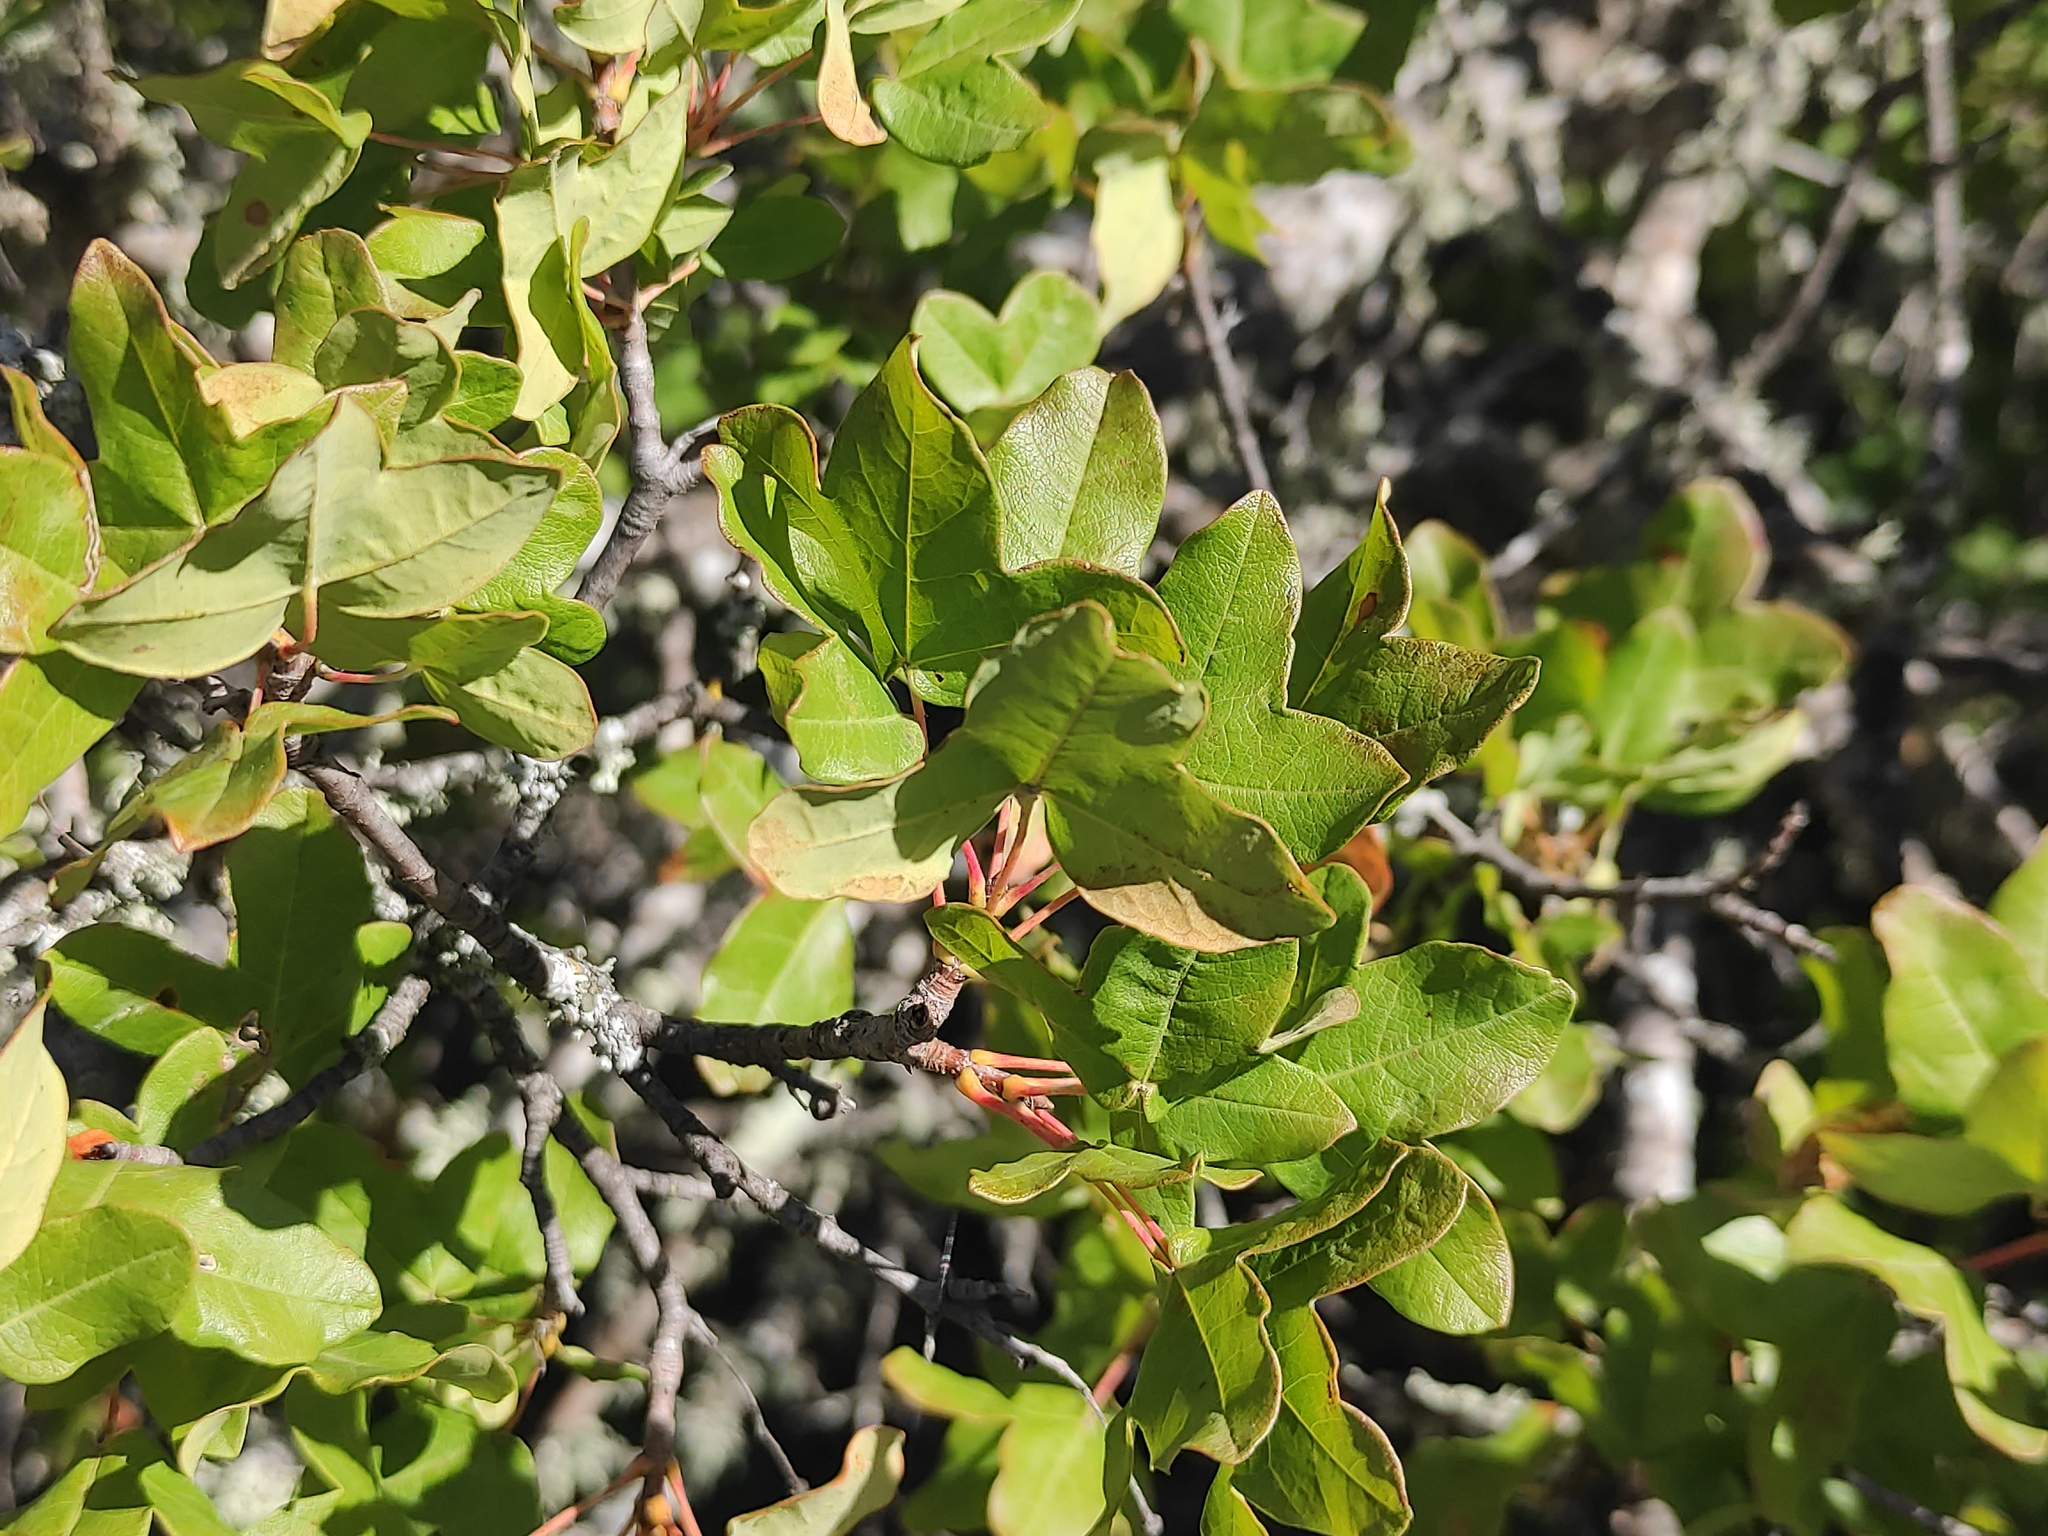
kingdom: Plantae
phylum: Tracheophyta
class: Magnoliopsida
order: Sapindales
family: Sapindaceae
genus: Acer
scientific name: Acer monspessulanum
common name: Montpellier maple
